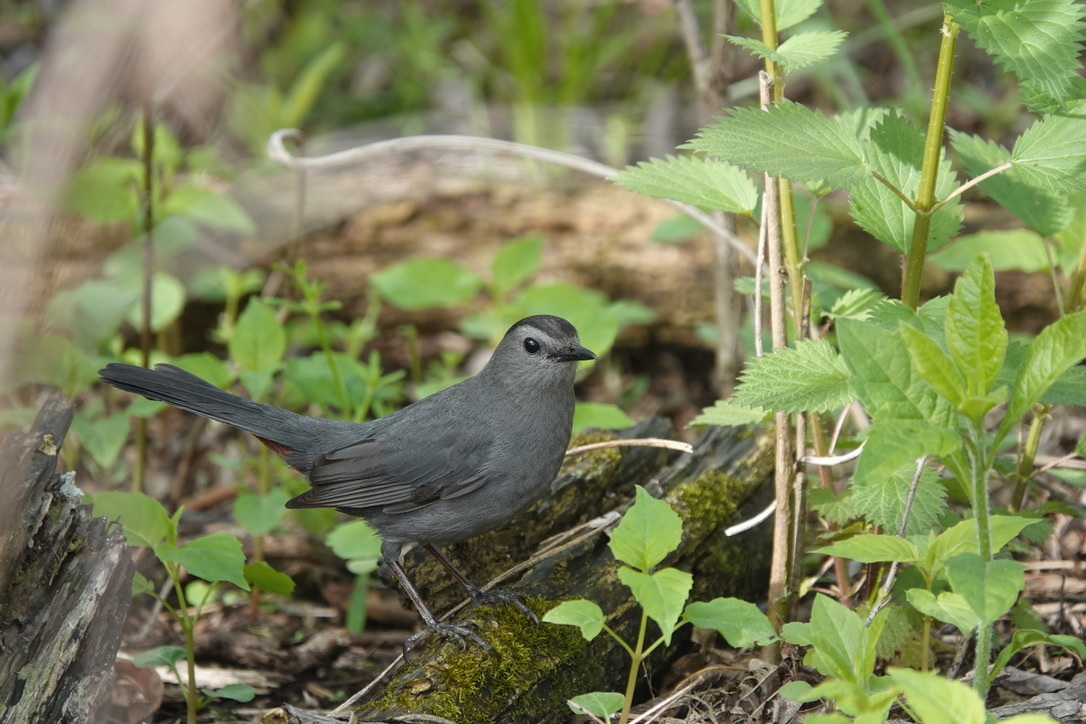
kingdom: Animalia
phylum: Chordata
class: Aves
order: Passeriformes
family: Mimidae
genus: Dumetella
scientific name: Dumetella carolinensis
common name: Gray catbird
